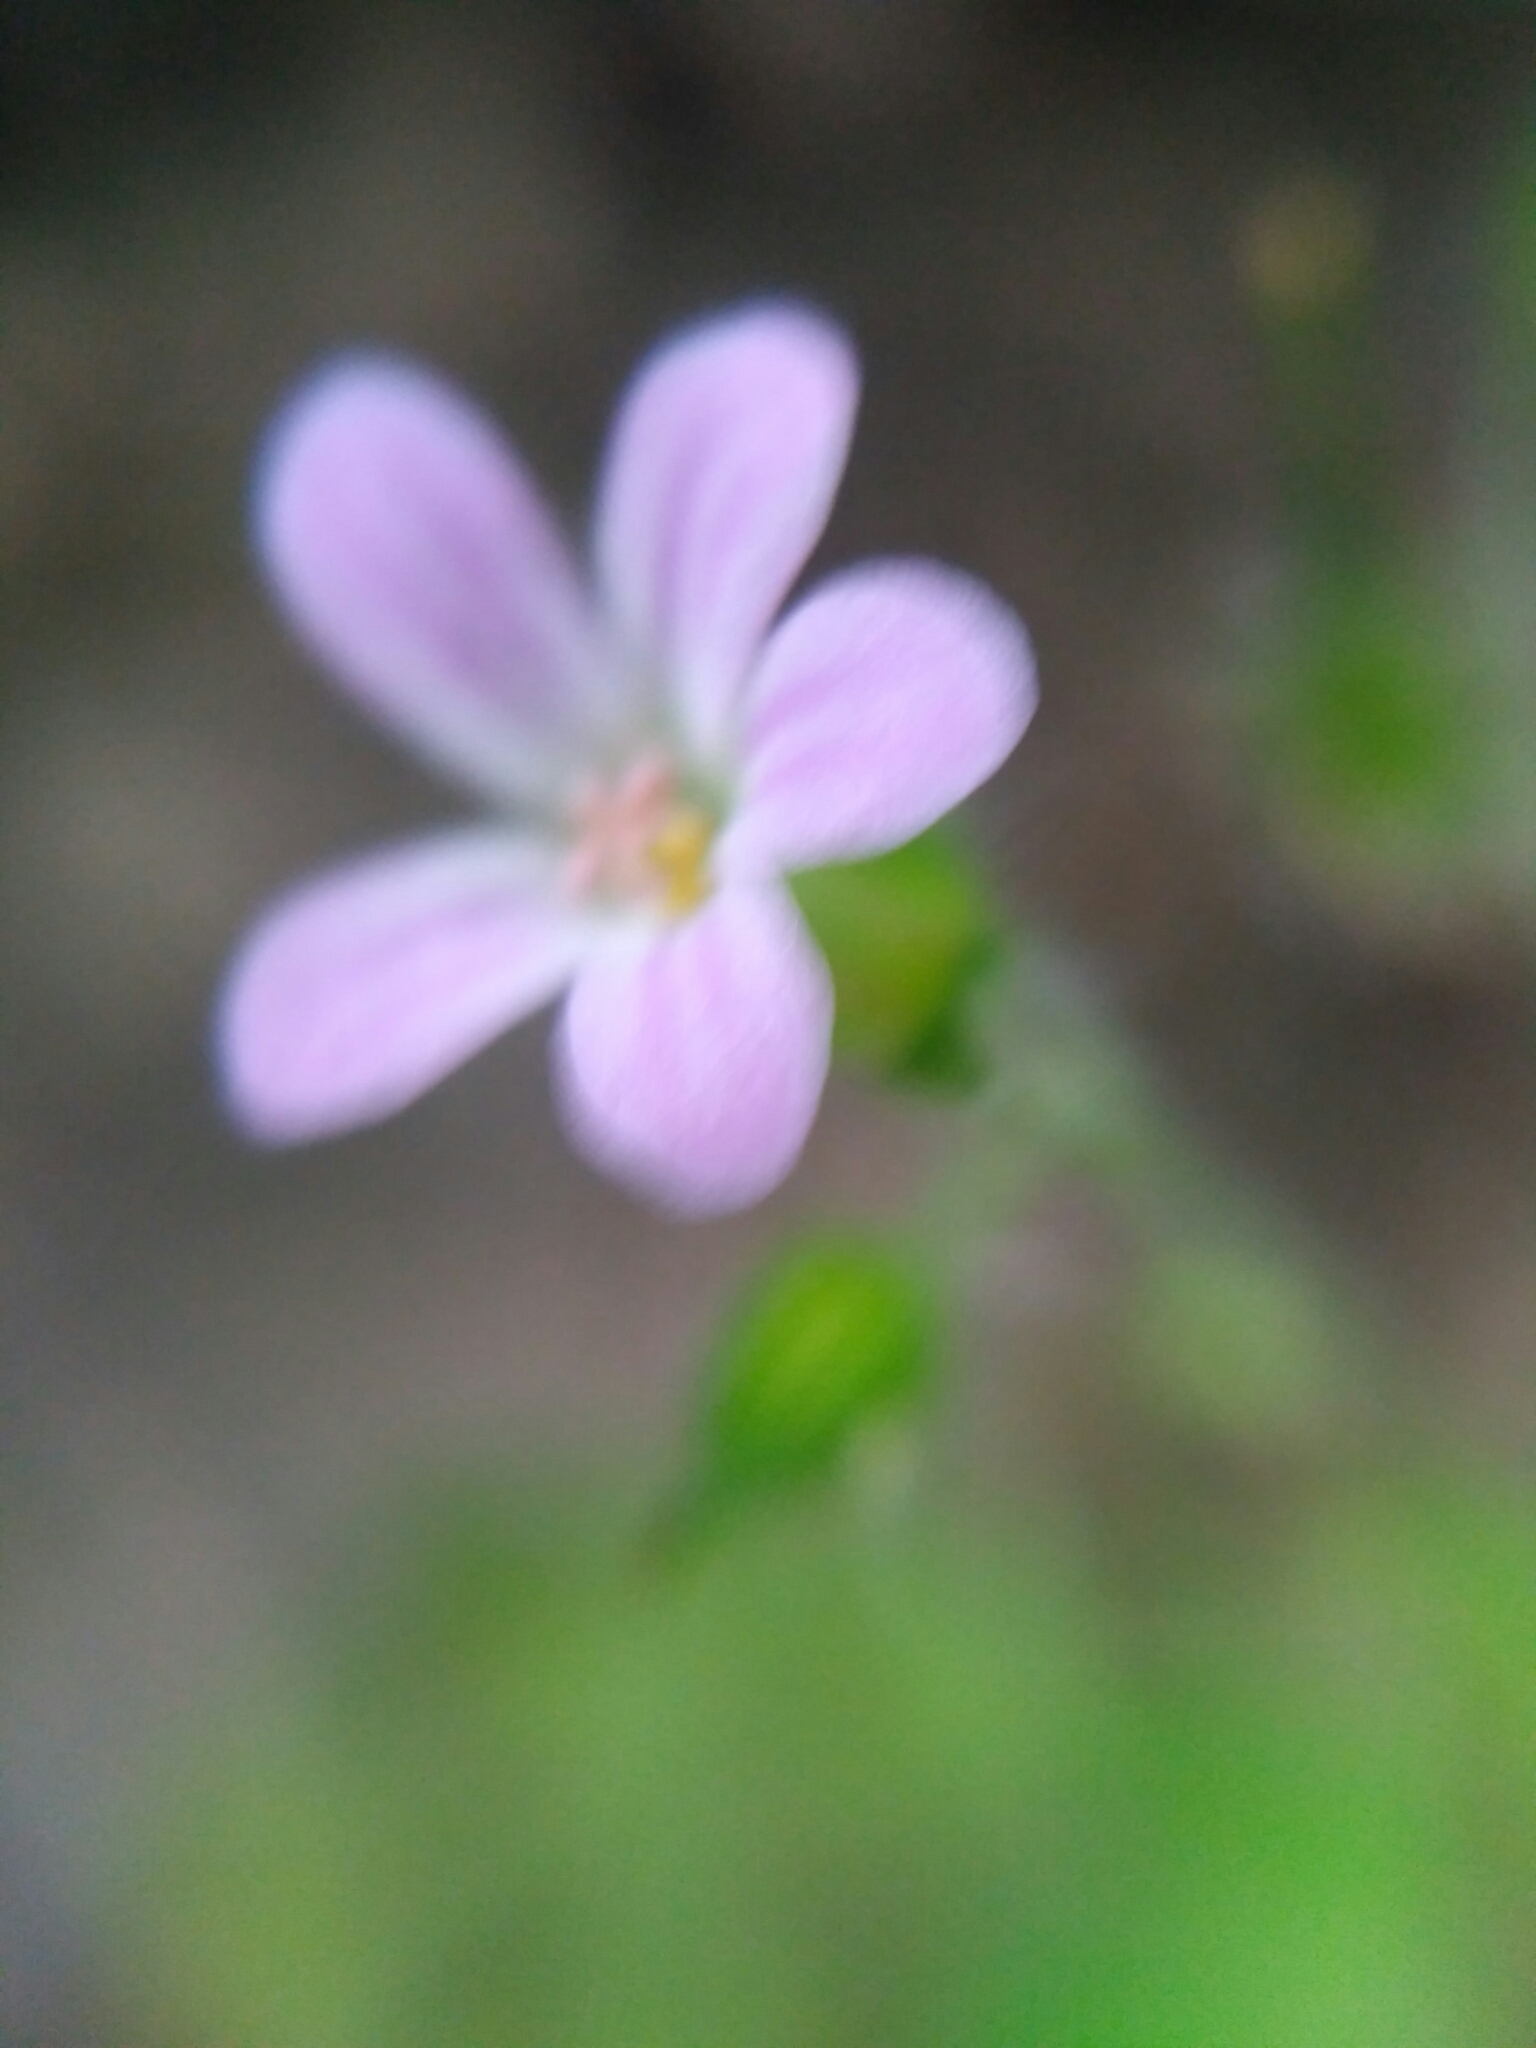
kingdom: Plantae
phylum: Tracheophyta
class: Magnoliopsida
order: Geraniales
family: Geraniaceae
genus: Geranium
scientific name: Geranium robertianum
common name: Herb-robert
